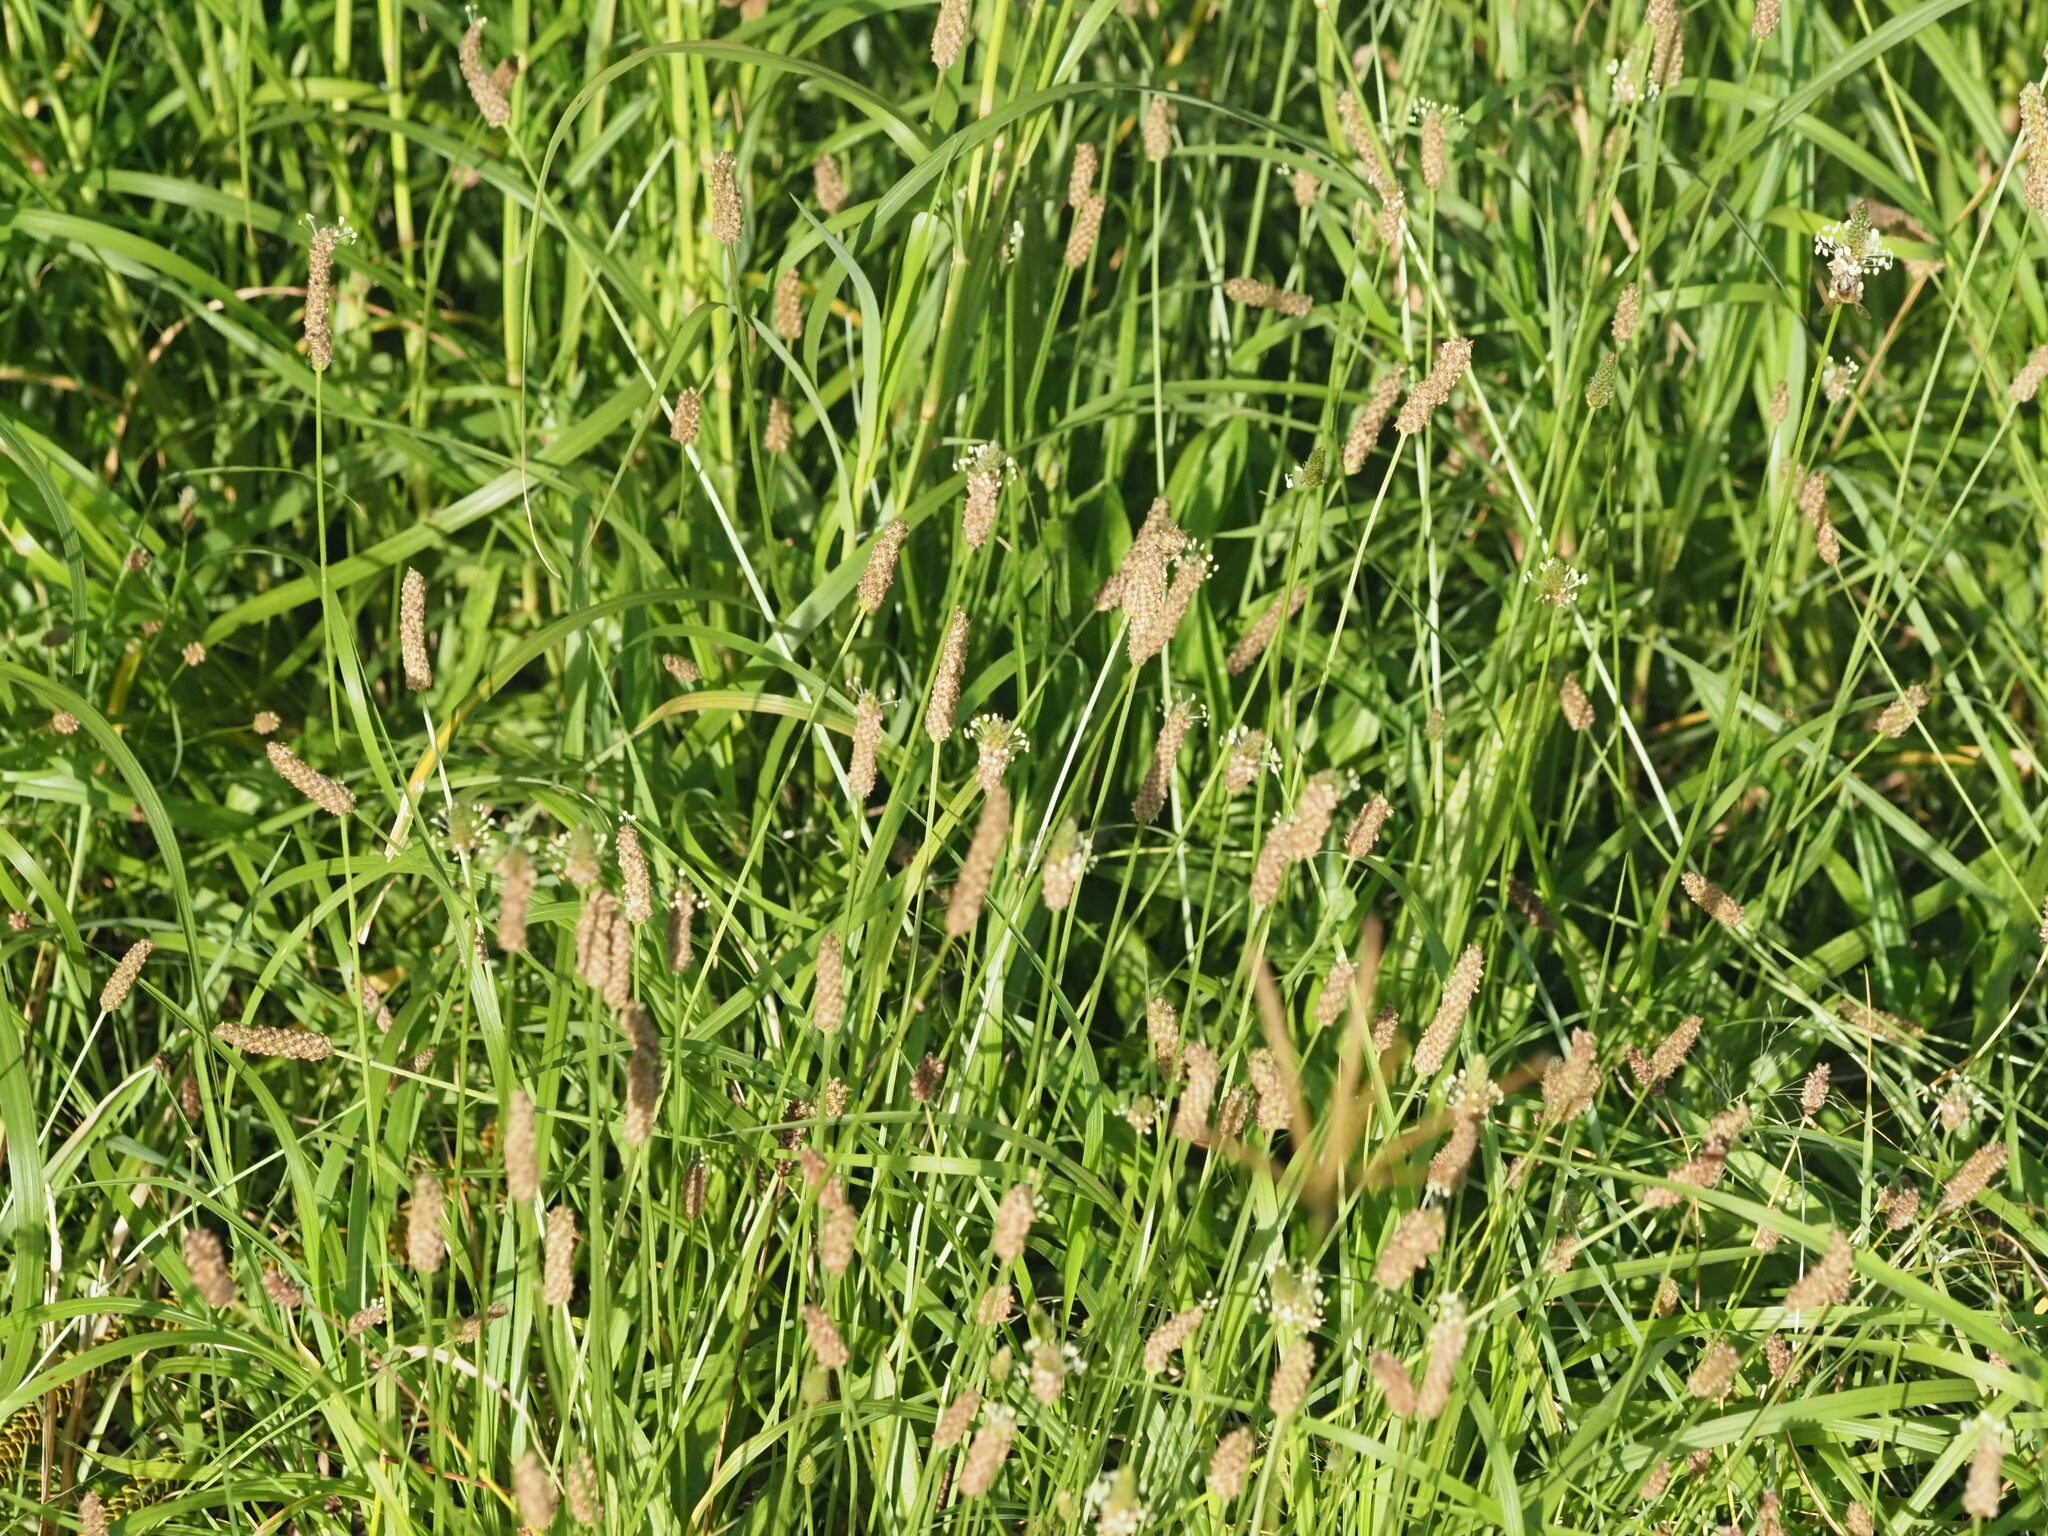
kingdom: Plantae
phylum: Tracheophyta
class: Magnoliopsida
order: Lamiales
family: Plantaginaceae
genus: Plantago
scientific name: Plantago lanceolata
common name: Ribwort plantain
